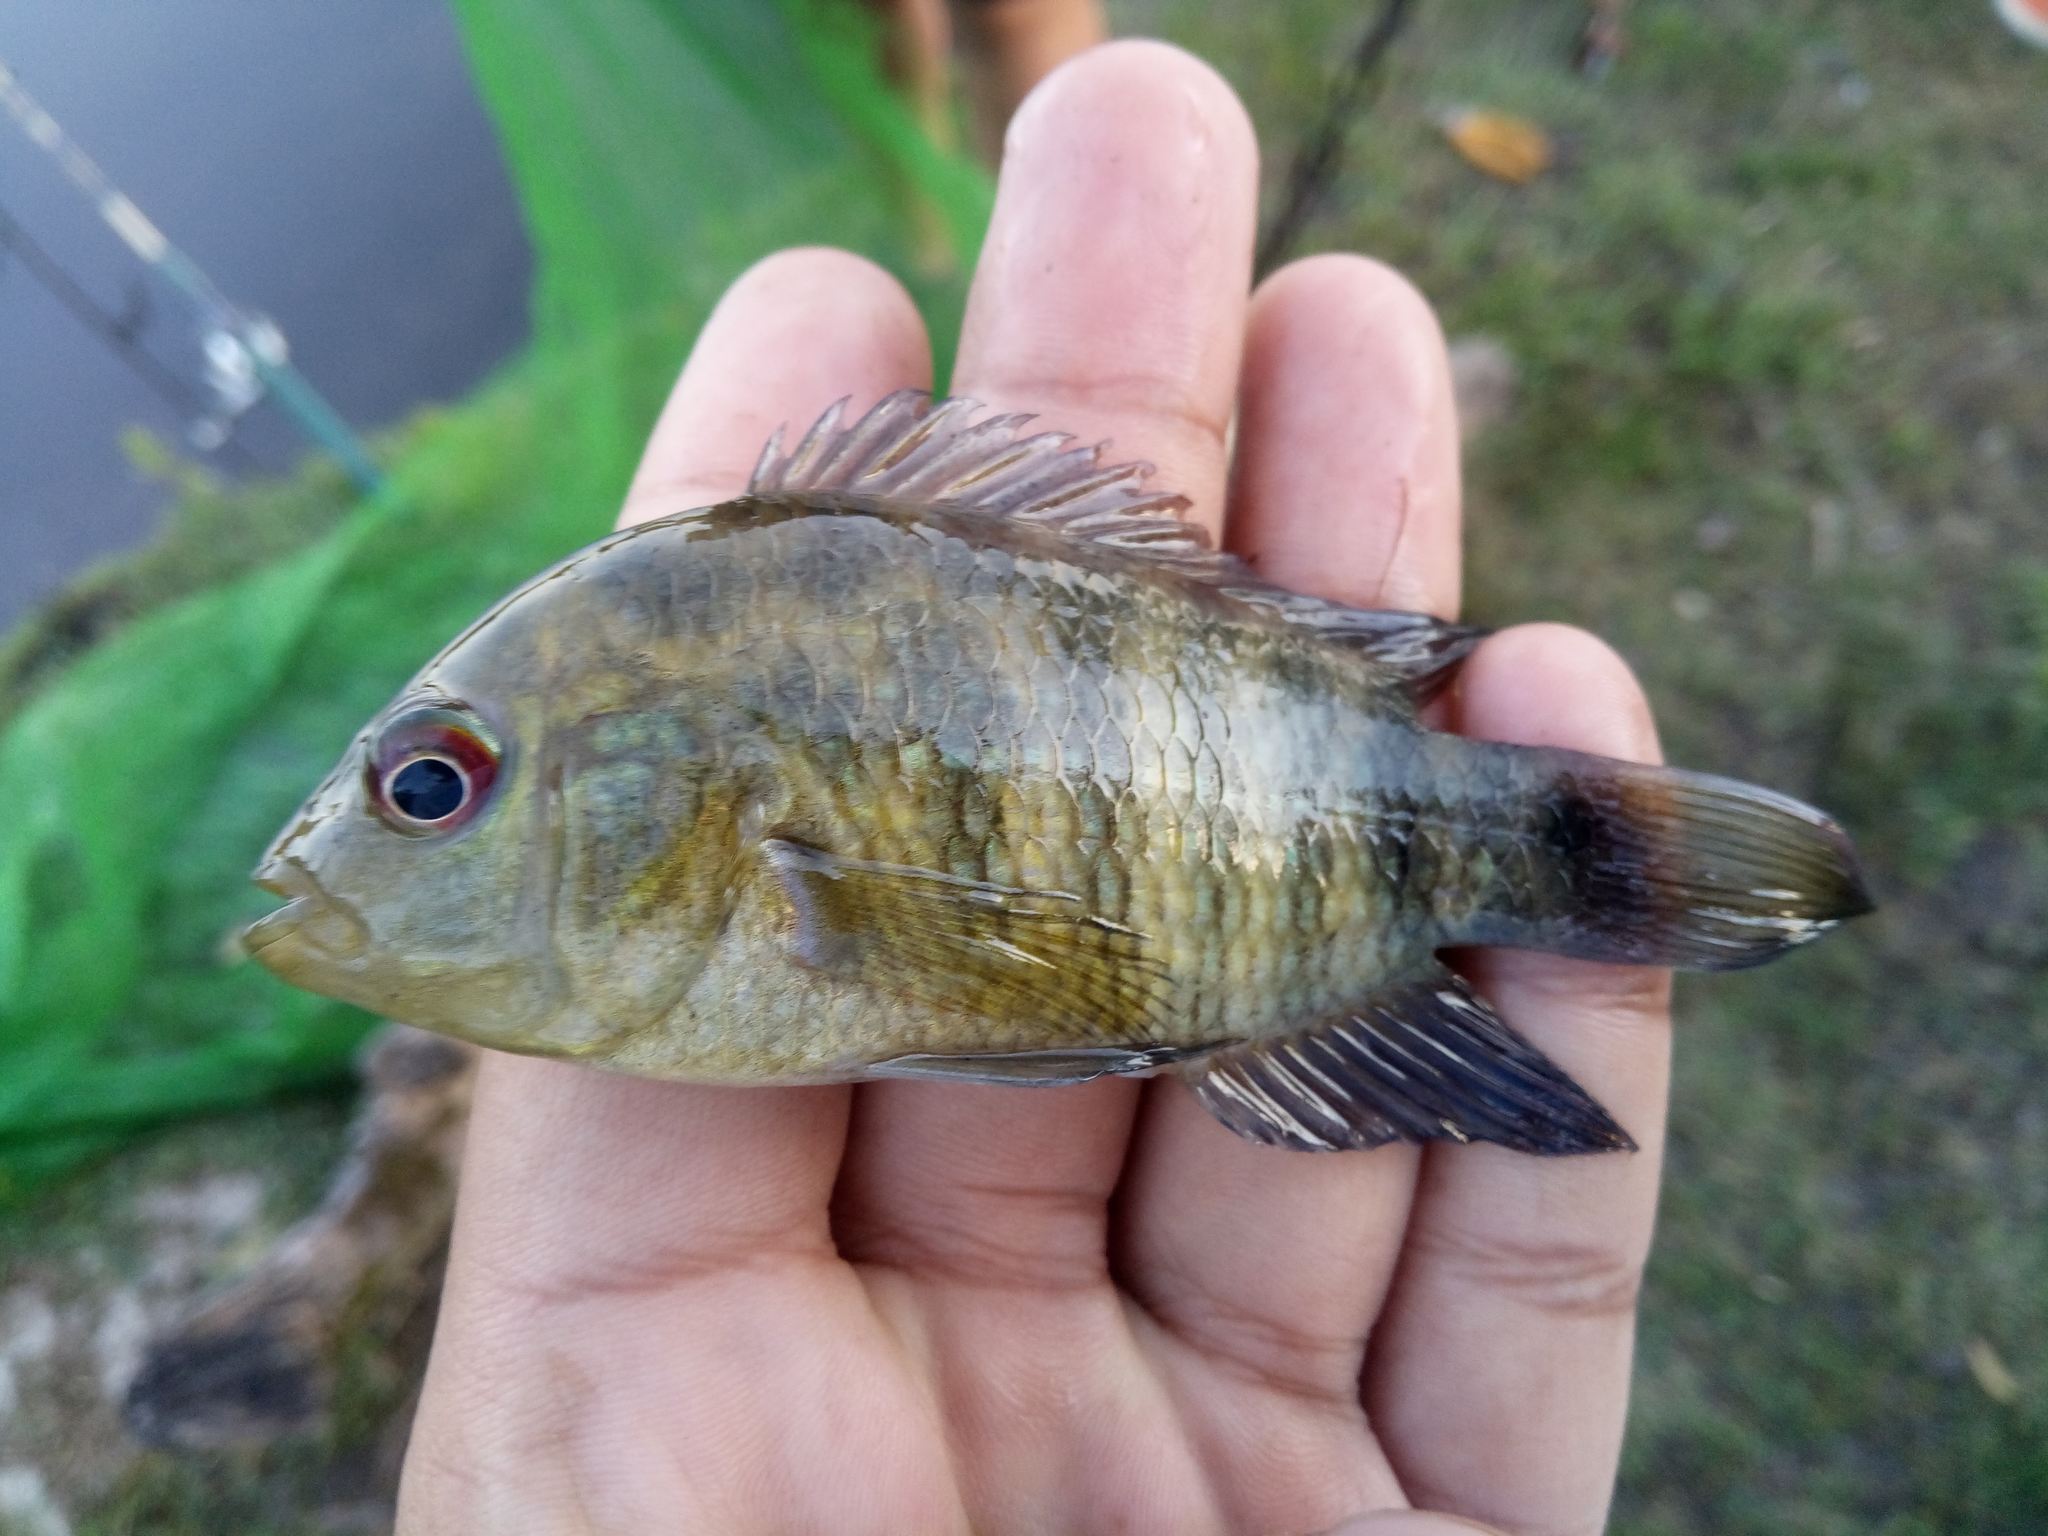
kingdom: Animalia
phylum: Chordata
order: Perciformes
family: Cichlidae
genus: Australoheros
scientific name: Australoheros facetus
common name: Chameleon cichlid
